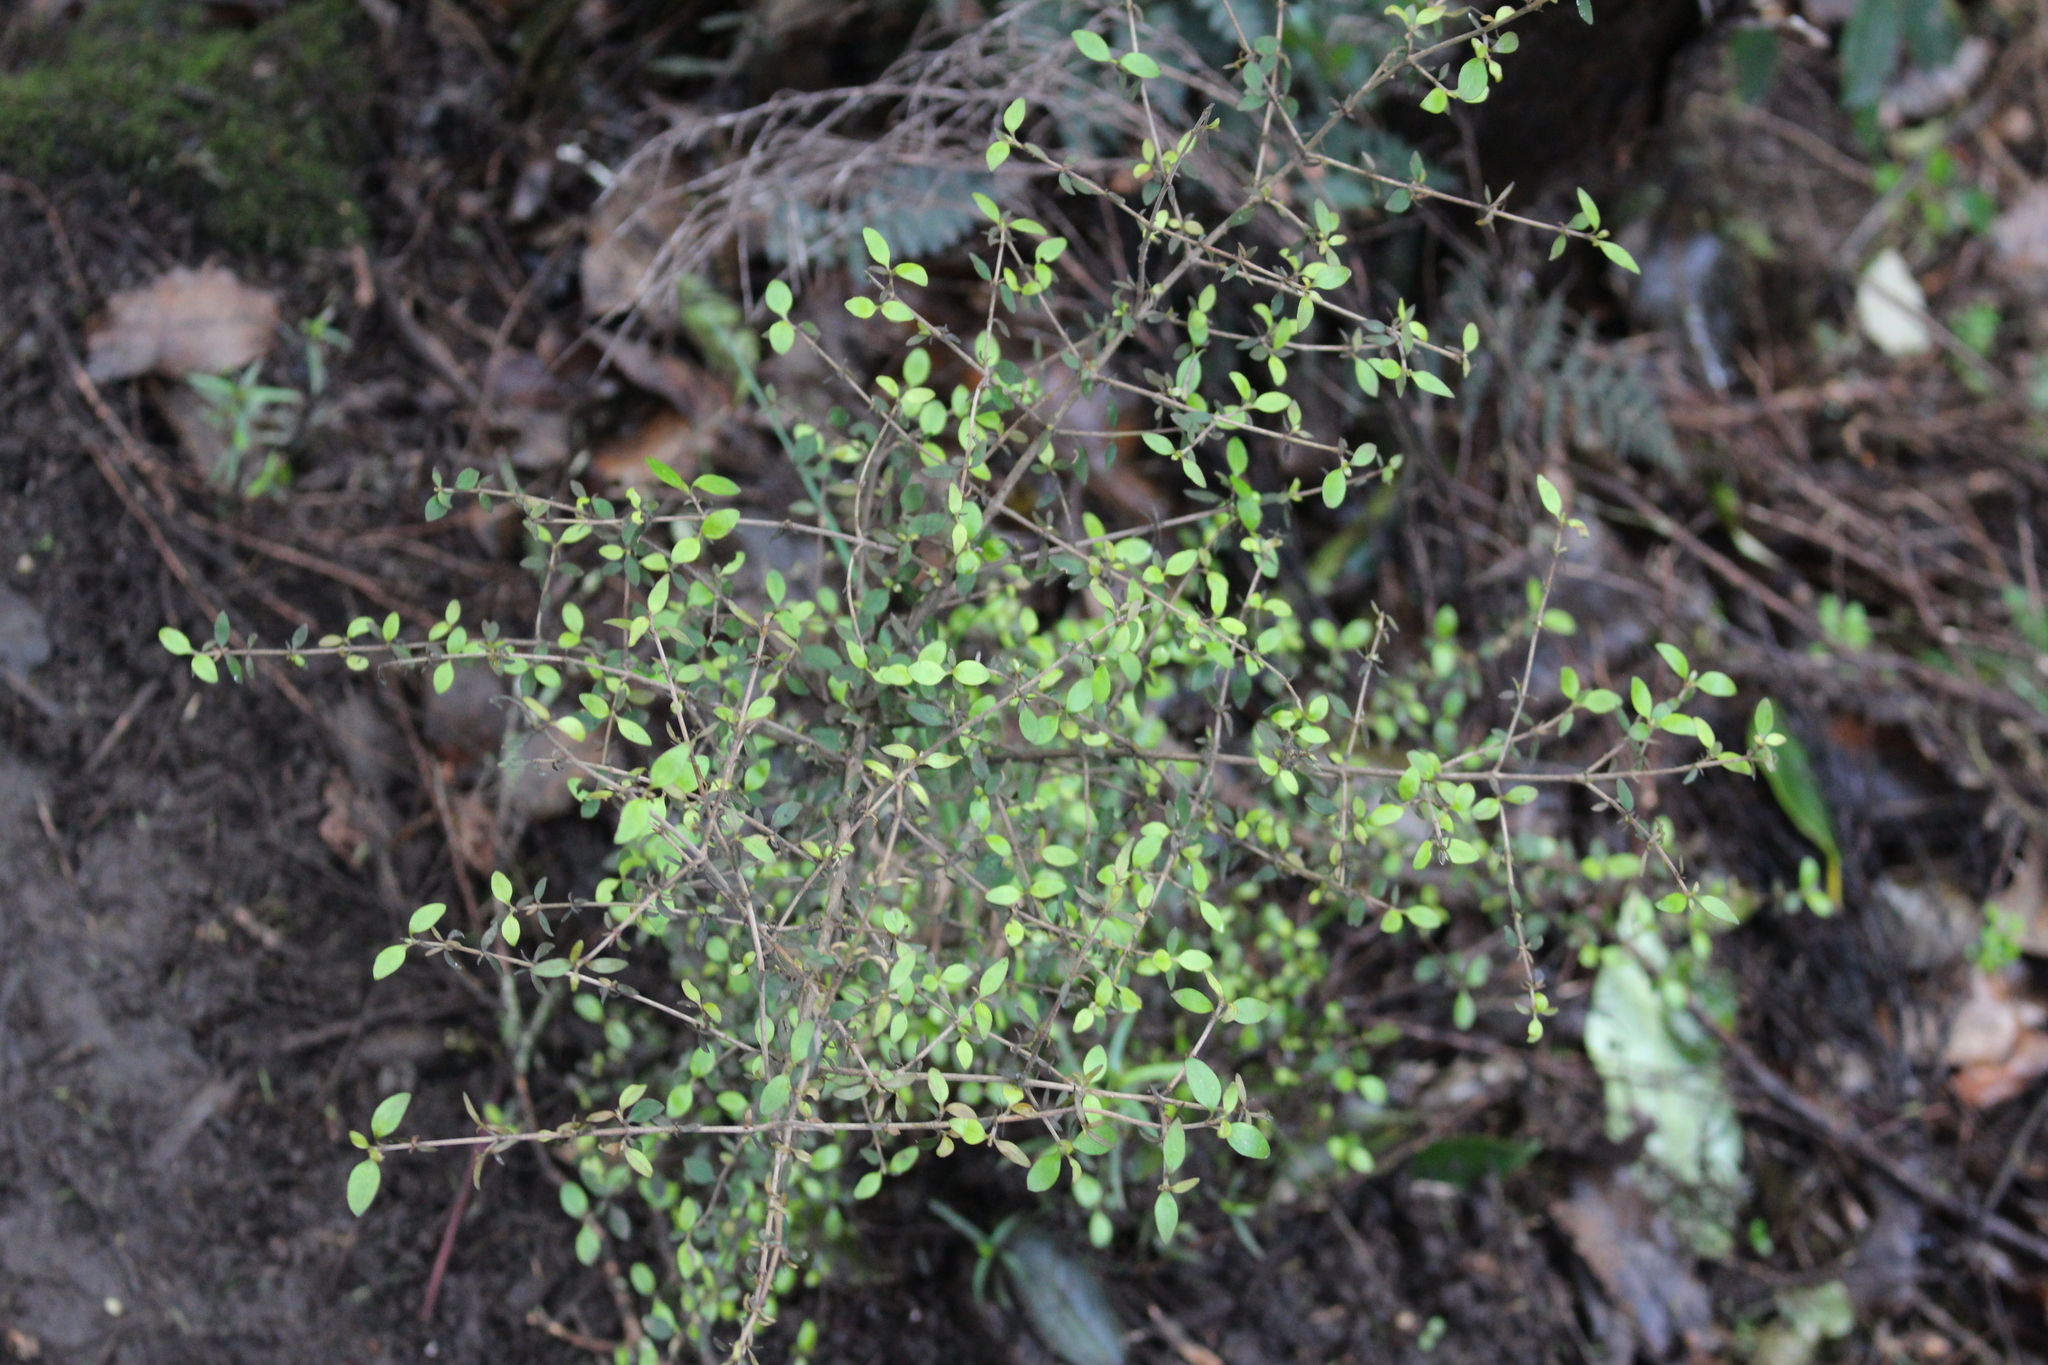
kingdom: Plantae
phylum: Tracheophyta
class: Magnoliopsida
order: Gentianales
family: Rubiaceae
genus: Coprosma
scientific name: Coprosma rhamnoides
